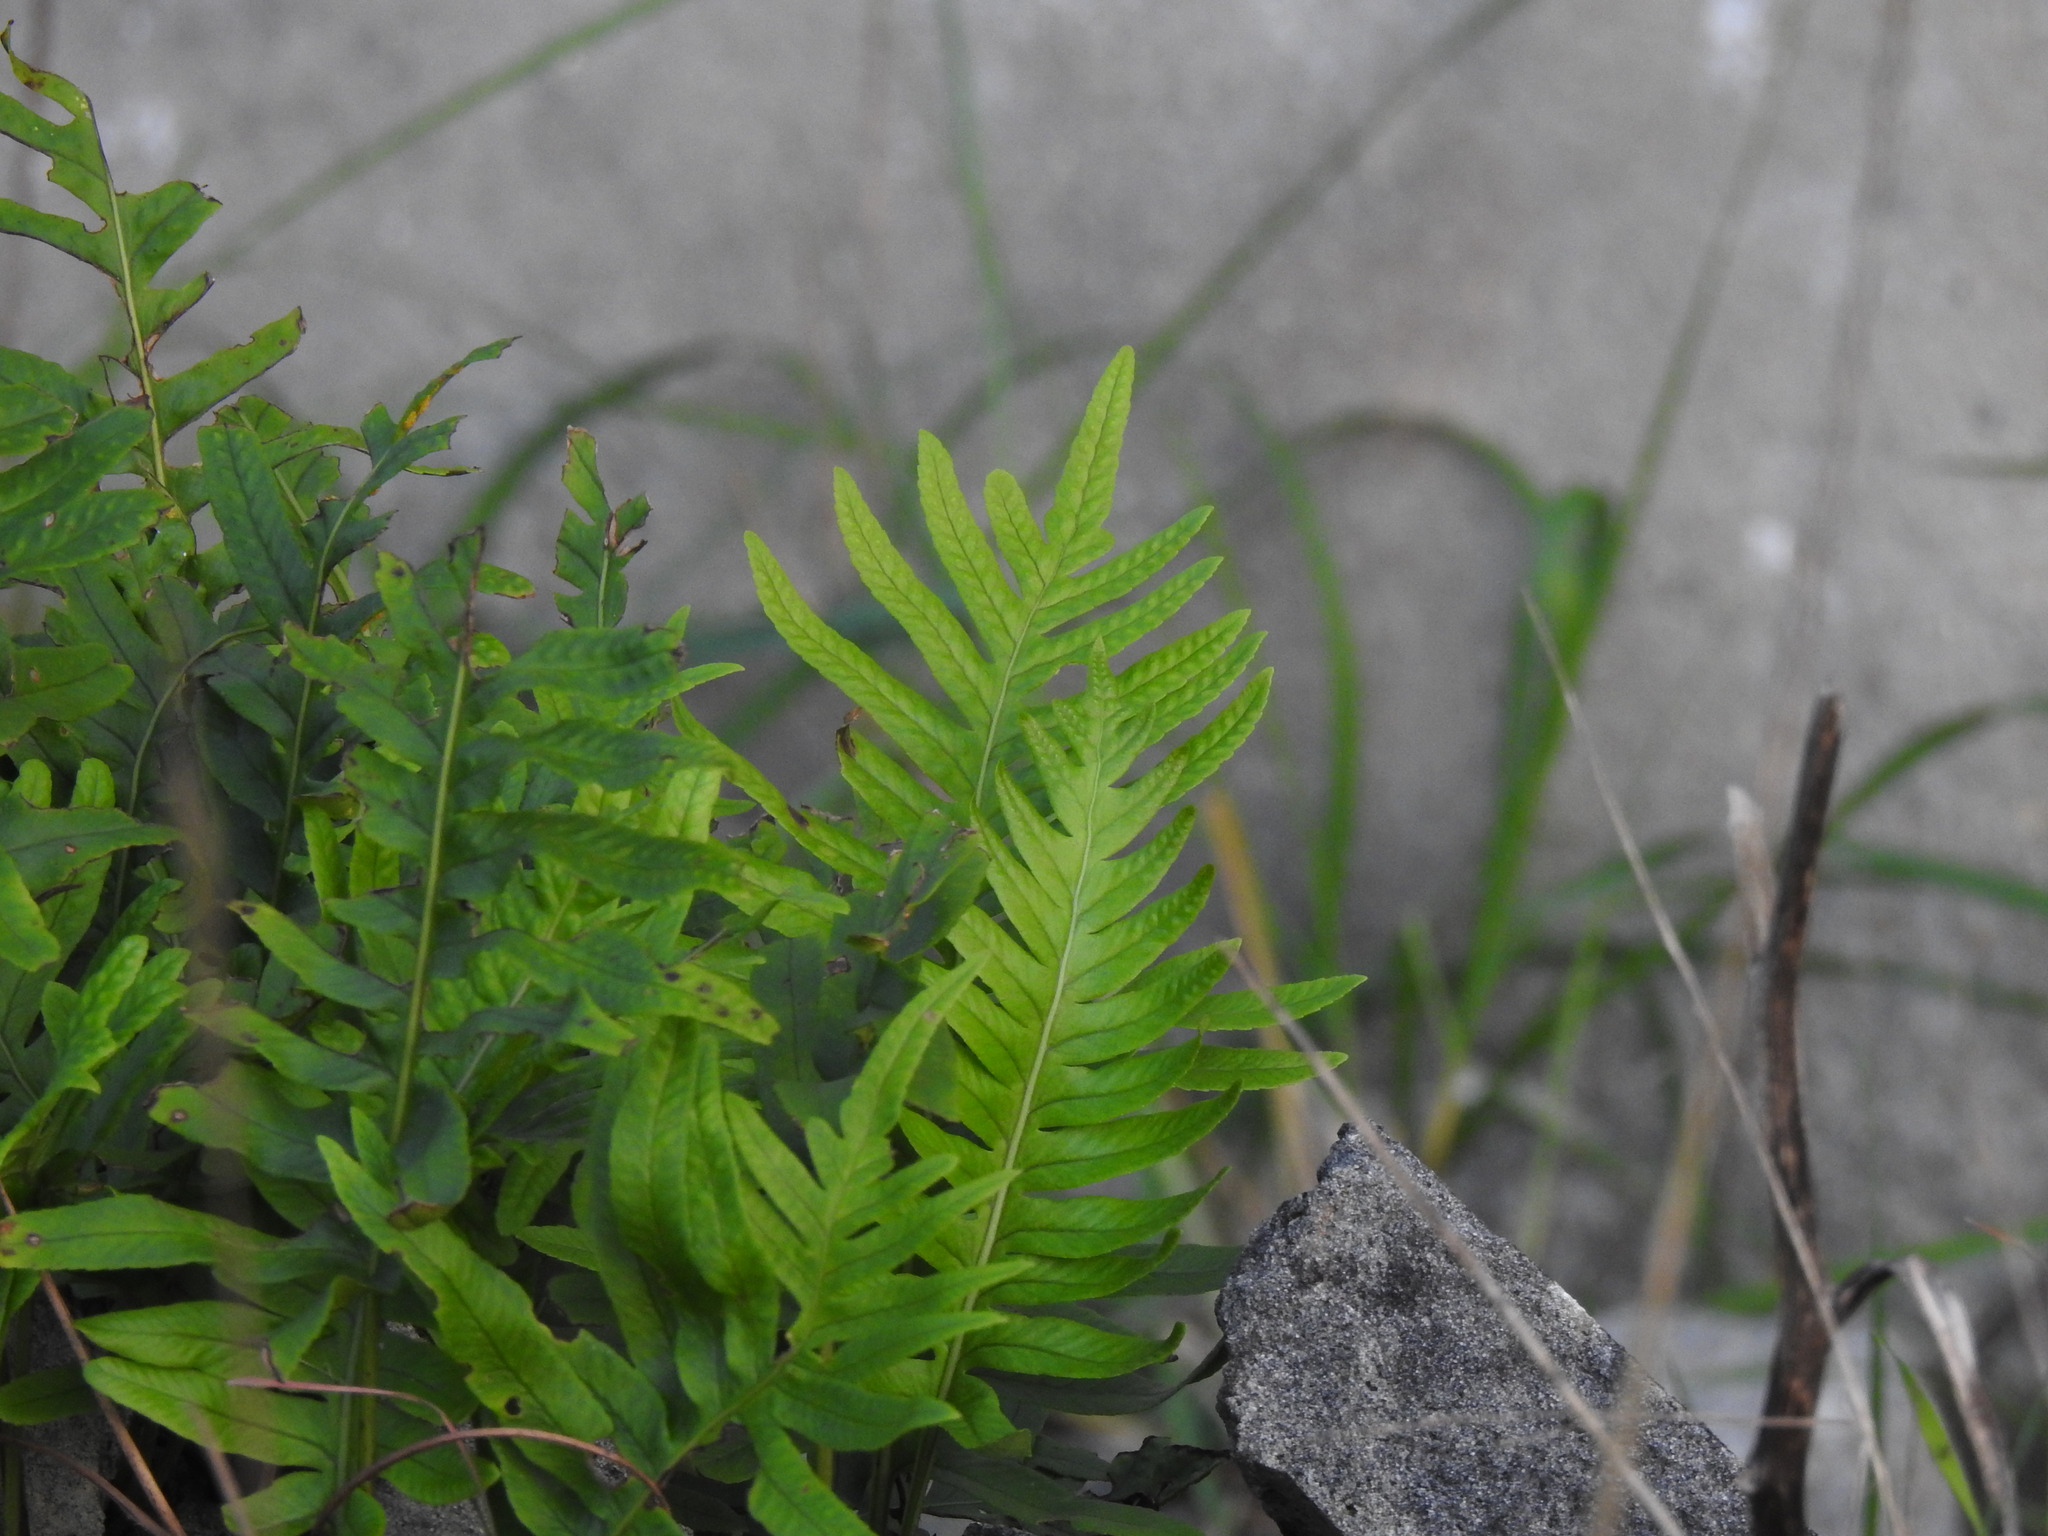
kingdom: Plantae
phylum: Tracheophyta
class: Polypodiopsida
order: Polypodiales
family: Polypodiaceae
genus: Polypodium
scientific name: Polypodium cambricum
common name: Southern polypody
